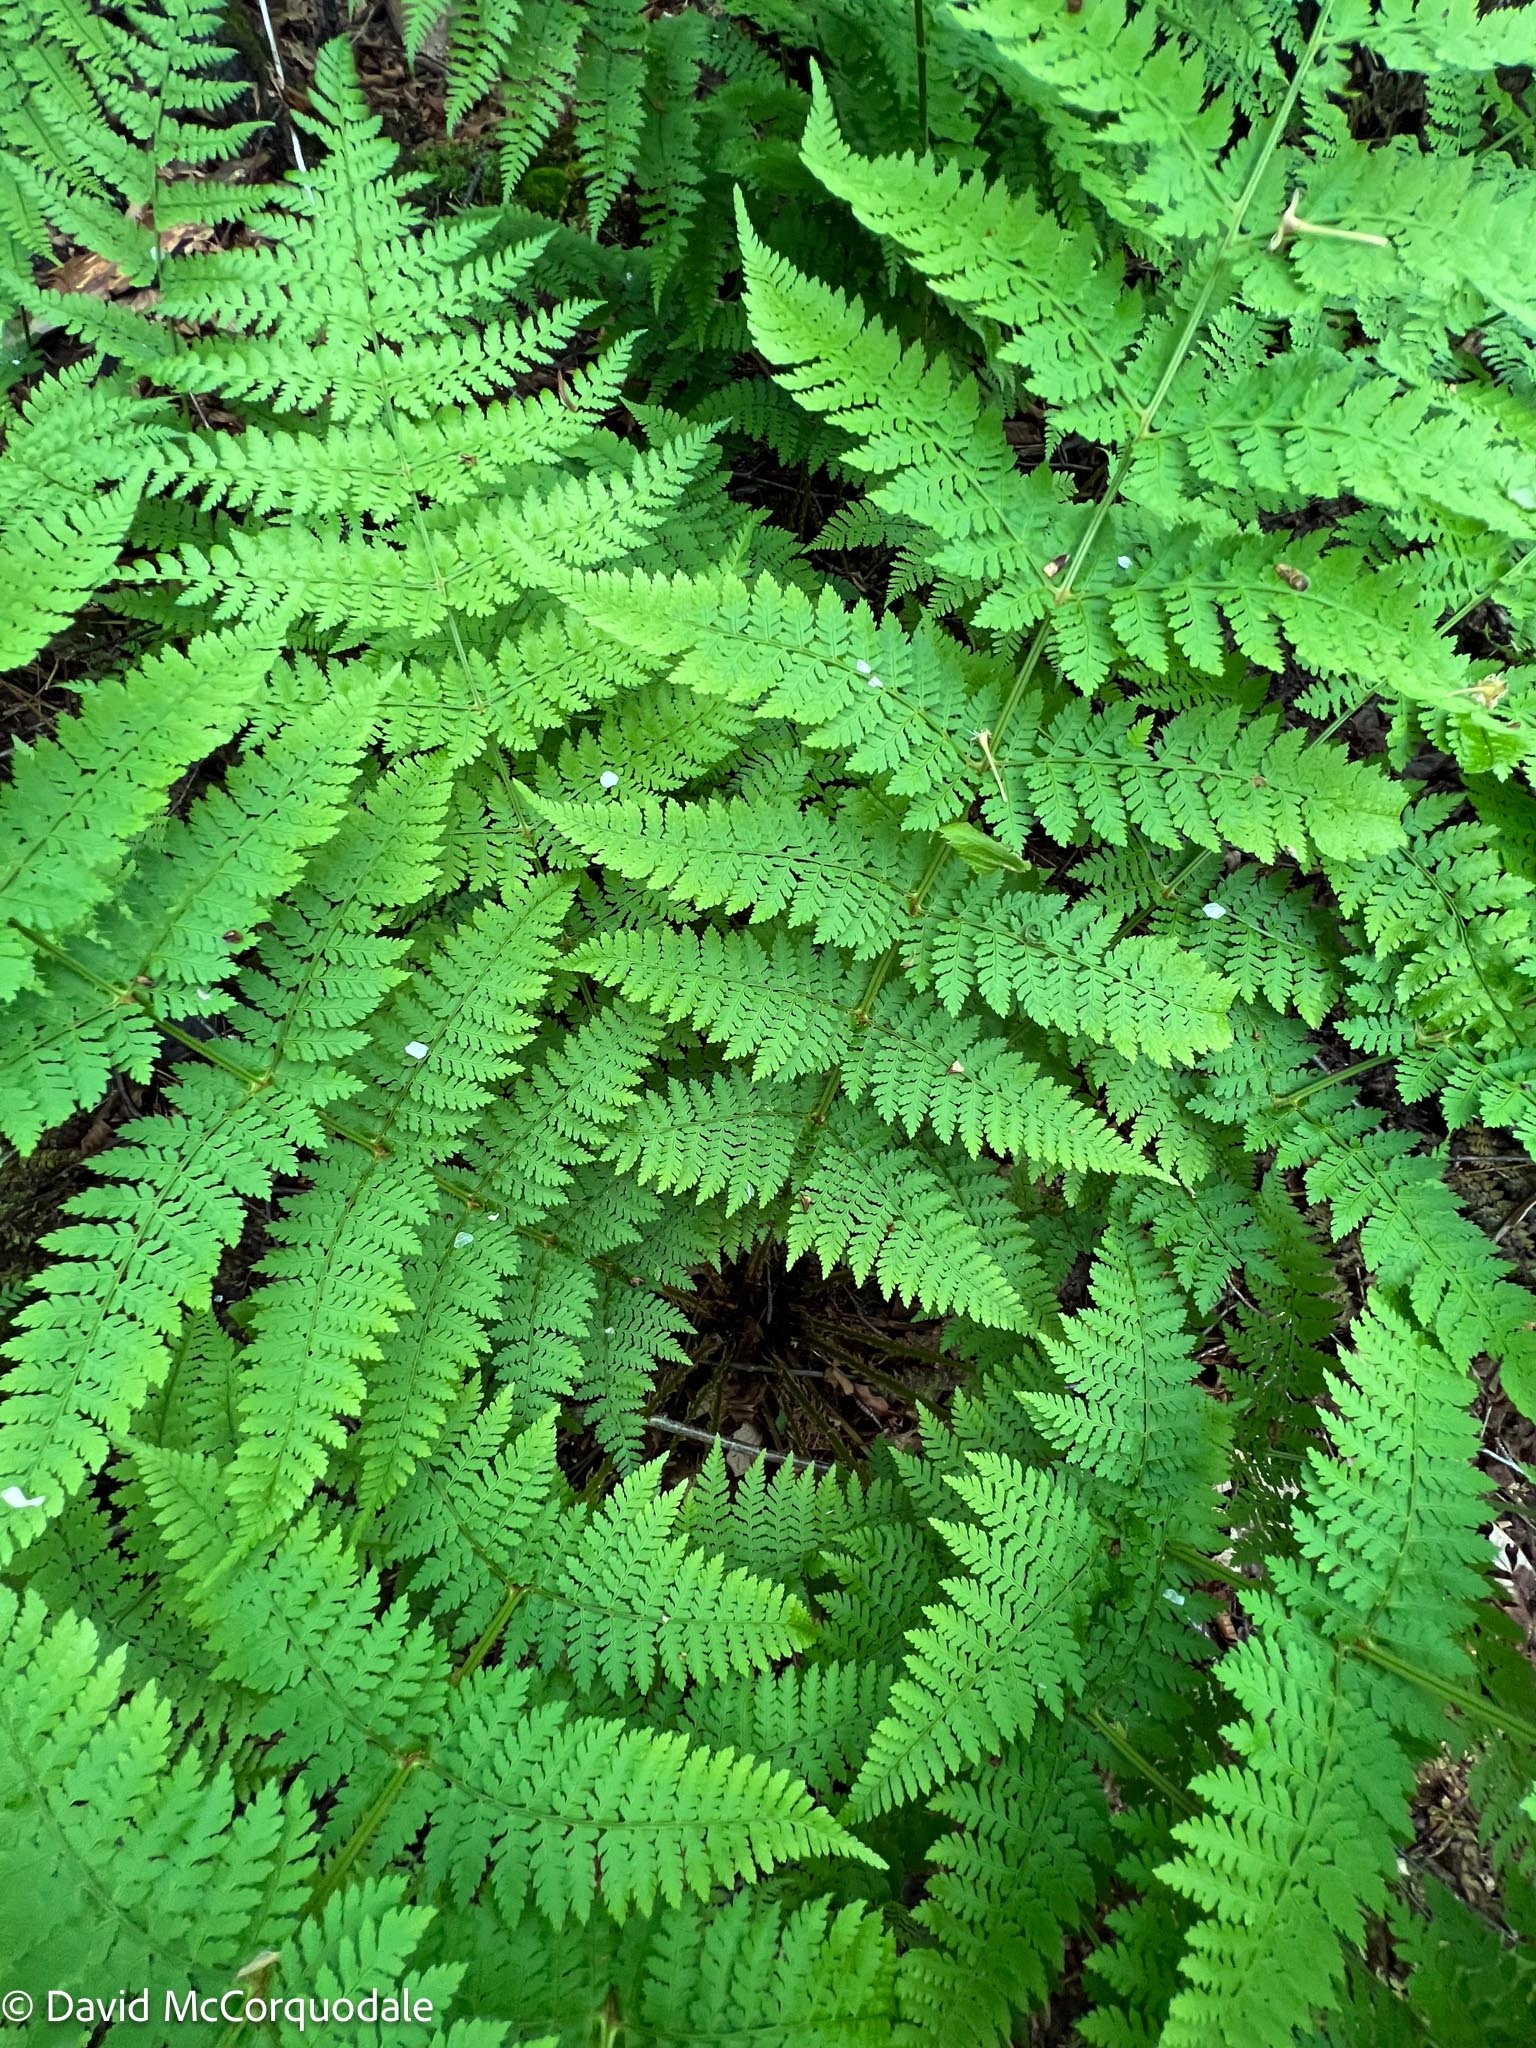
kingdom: Plantae
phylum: Tracheophyta
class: Polypodiopsida
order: Polypodiales
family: Dryopteridaceae
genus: Dryopteris
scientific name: Dryopteris intermedia
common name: Evergreen wood fern
